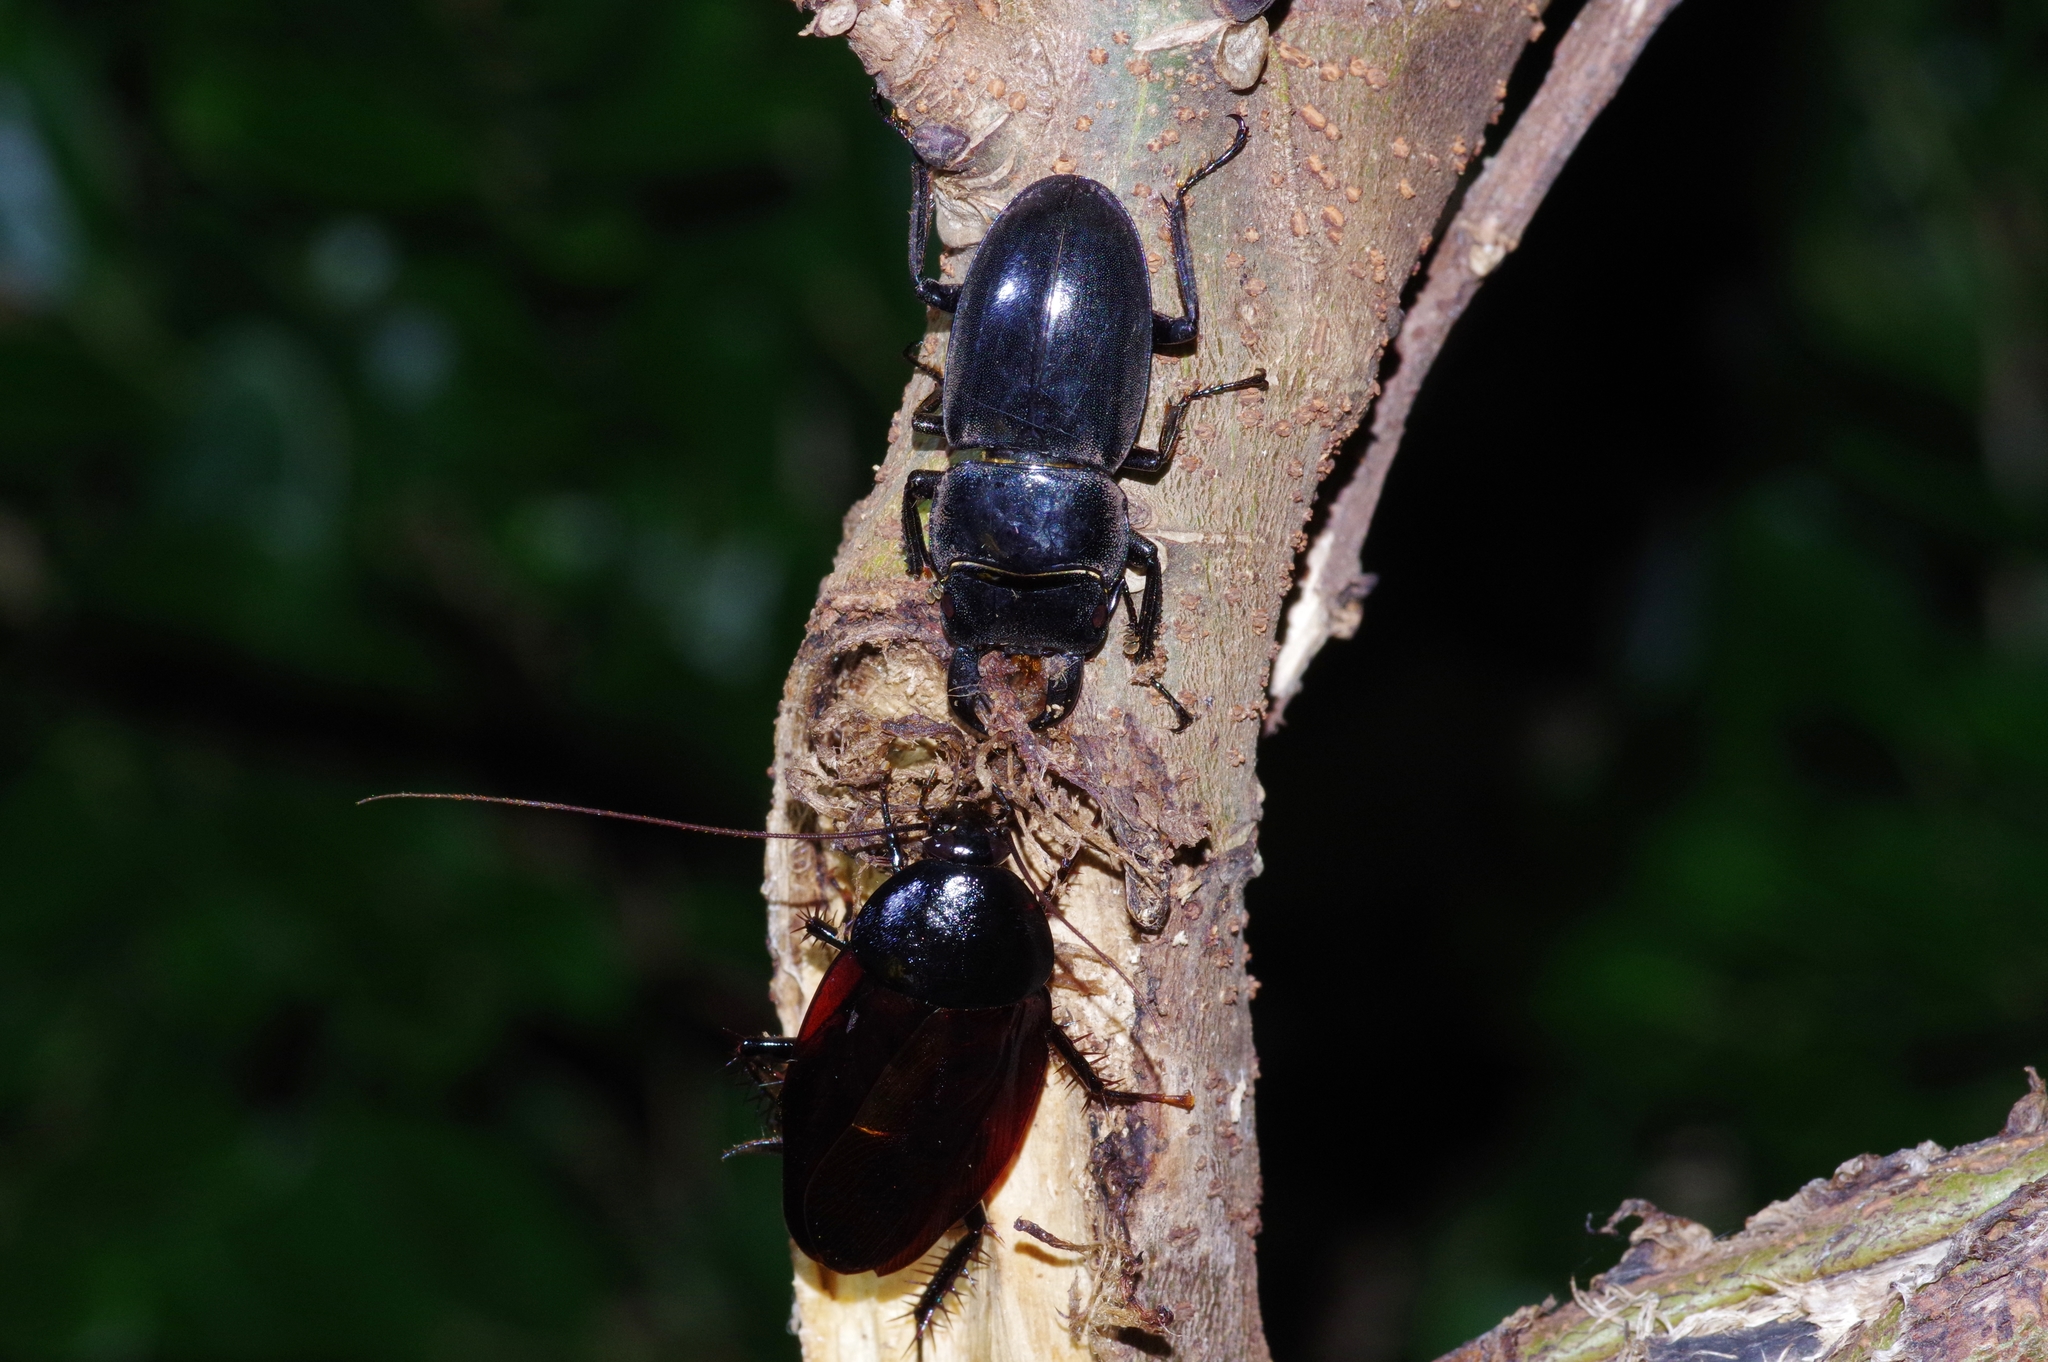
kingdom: Animalia
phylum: Arthropoda
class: Insecta
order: Coleoptera
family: Lucanidae
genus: Serrognathus
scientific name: Serrognathus titanus
